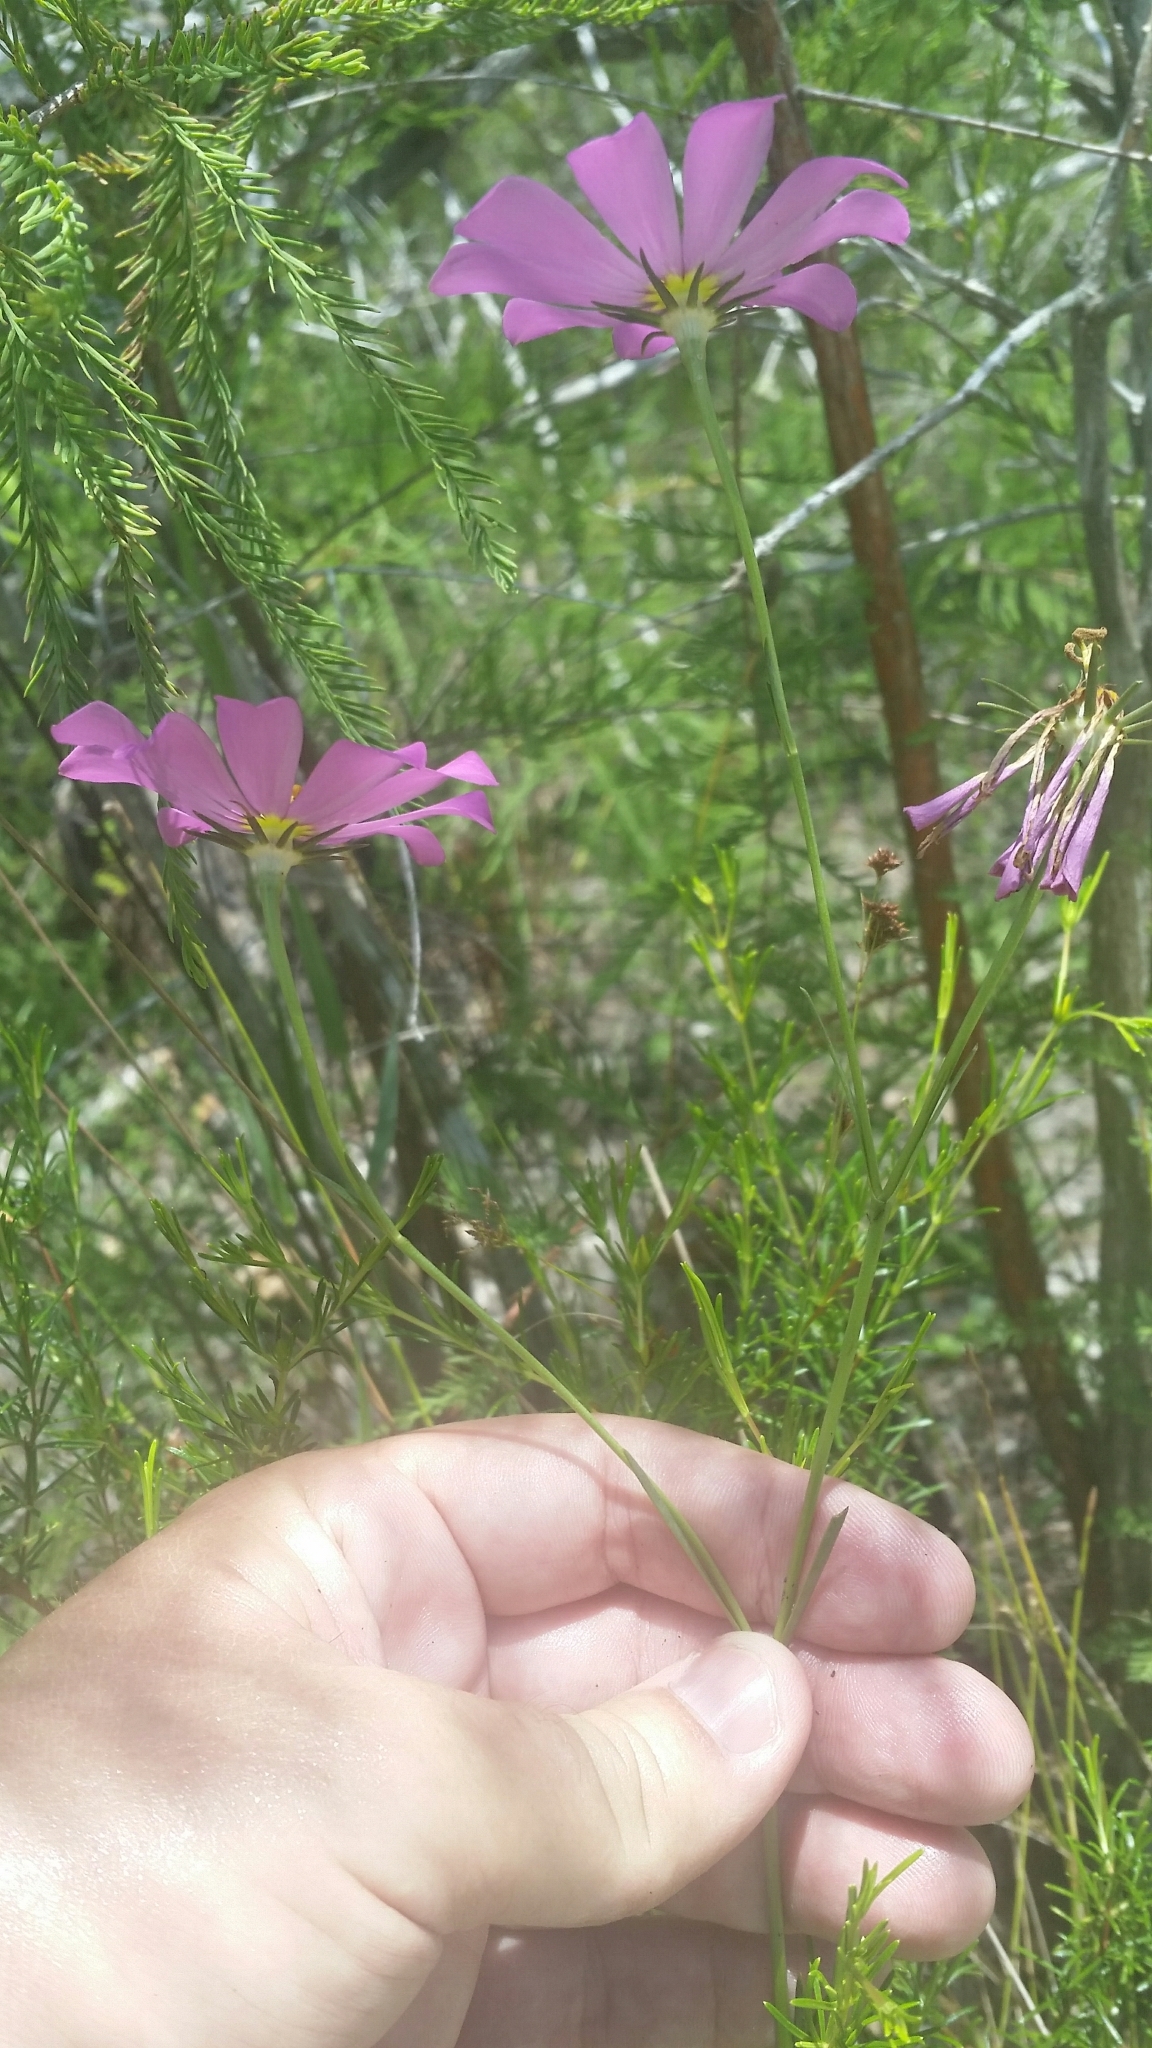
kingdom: Plantae
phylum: Tracheophyta
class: Magnoliopsida
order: Gentianales
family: Gentianaceae
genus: Sabatia
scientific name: Sabatia decandra
